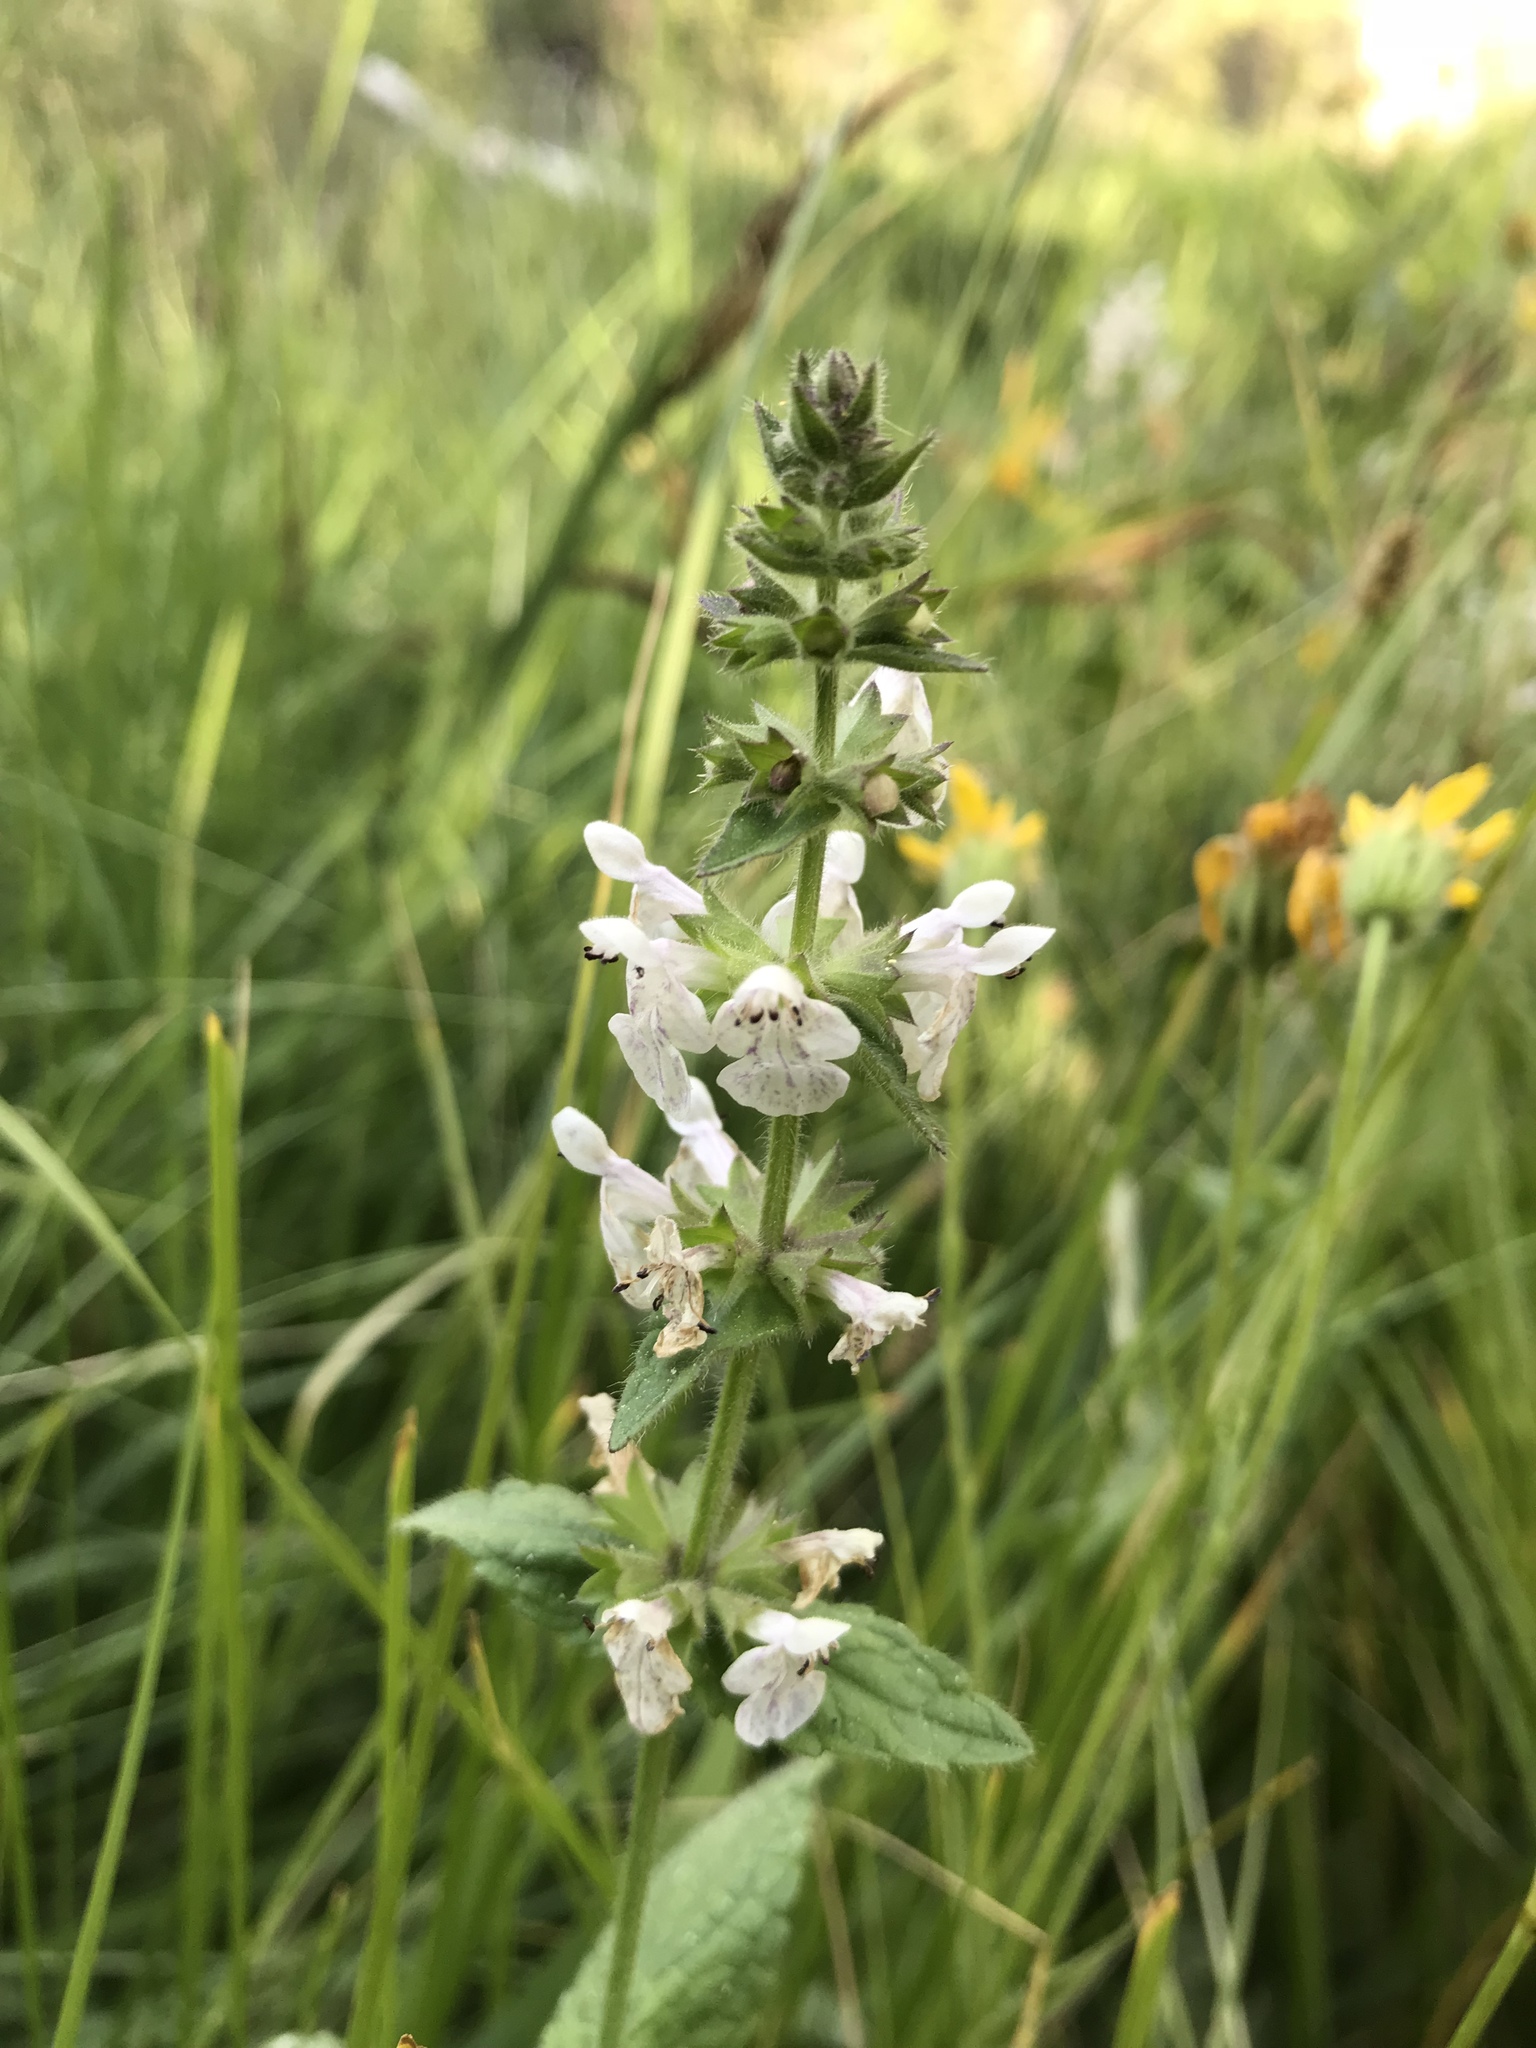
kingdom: Plantae
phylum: Tracheophyta
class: Magnoliopsida
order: Lamiales
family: Lamiaceae
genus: Stachys
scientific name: Stachys ajugoides
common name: Hedge-nettle
